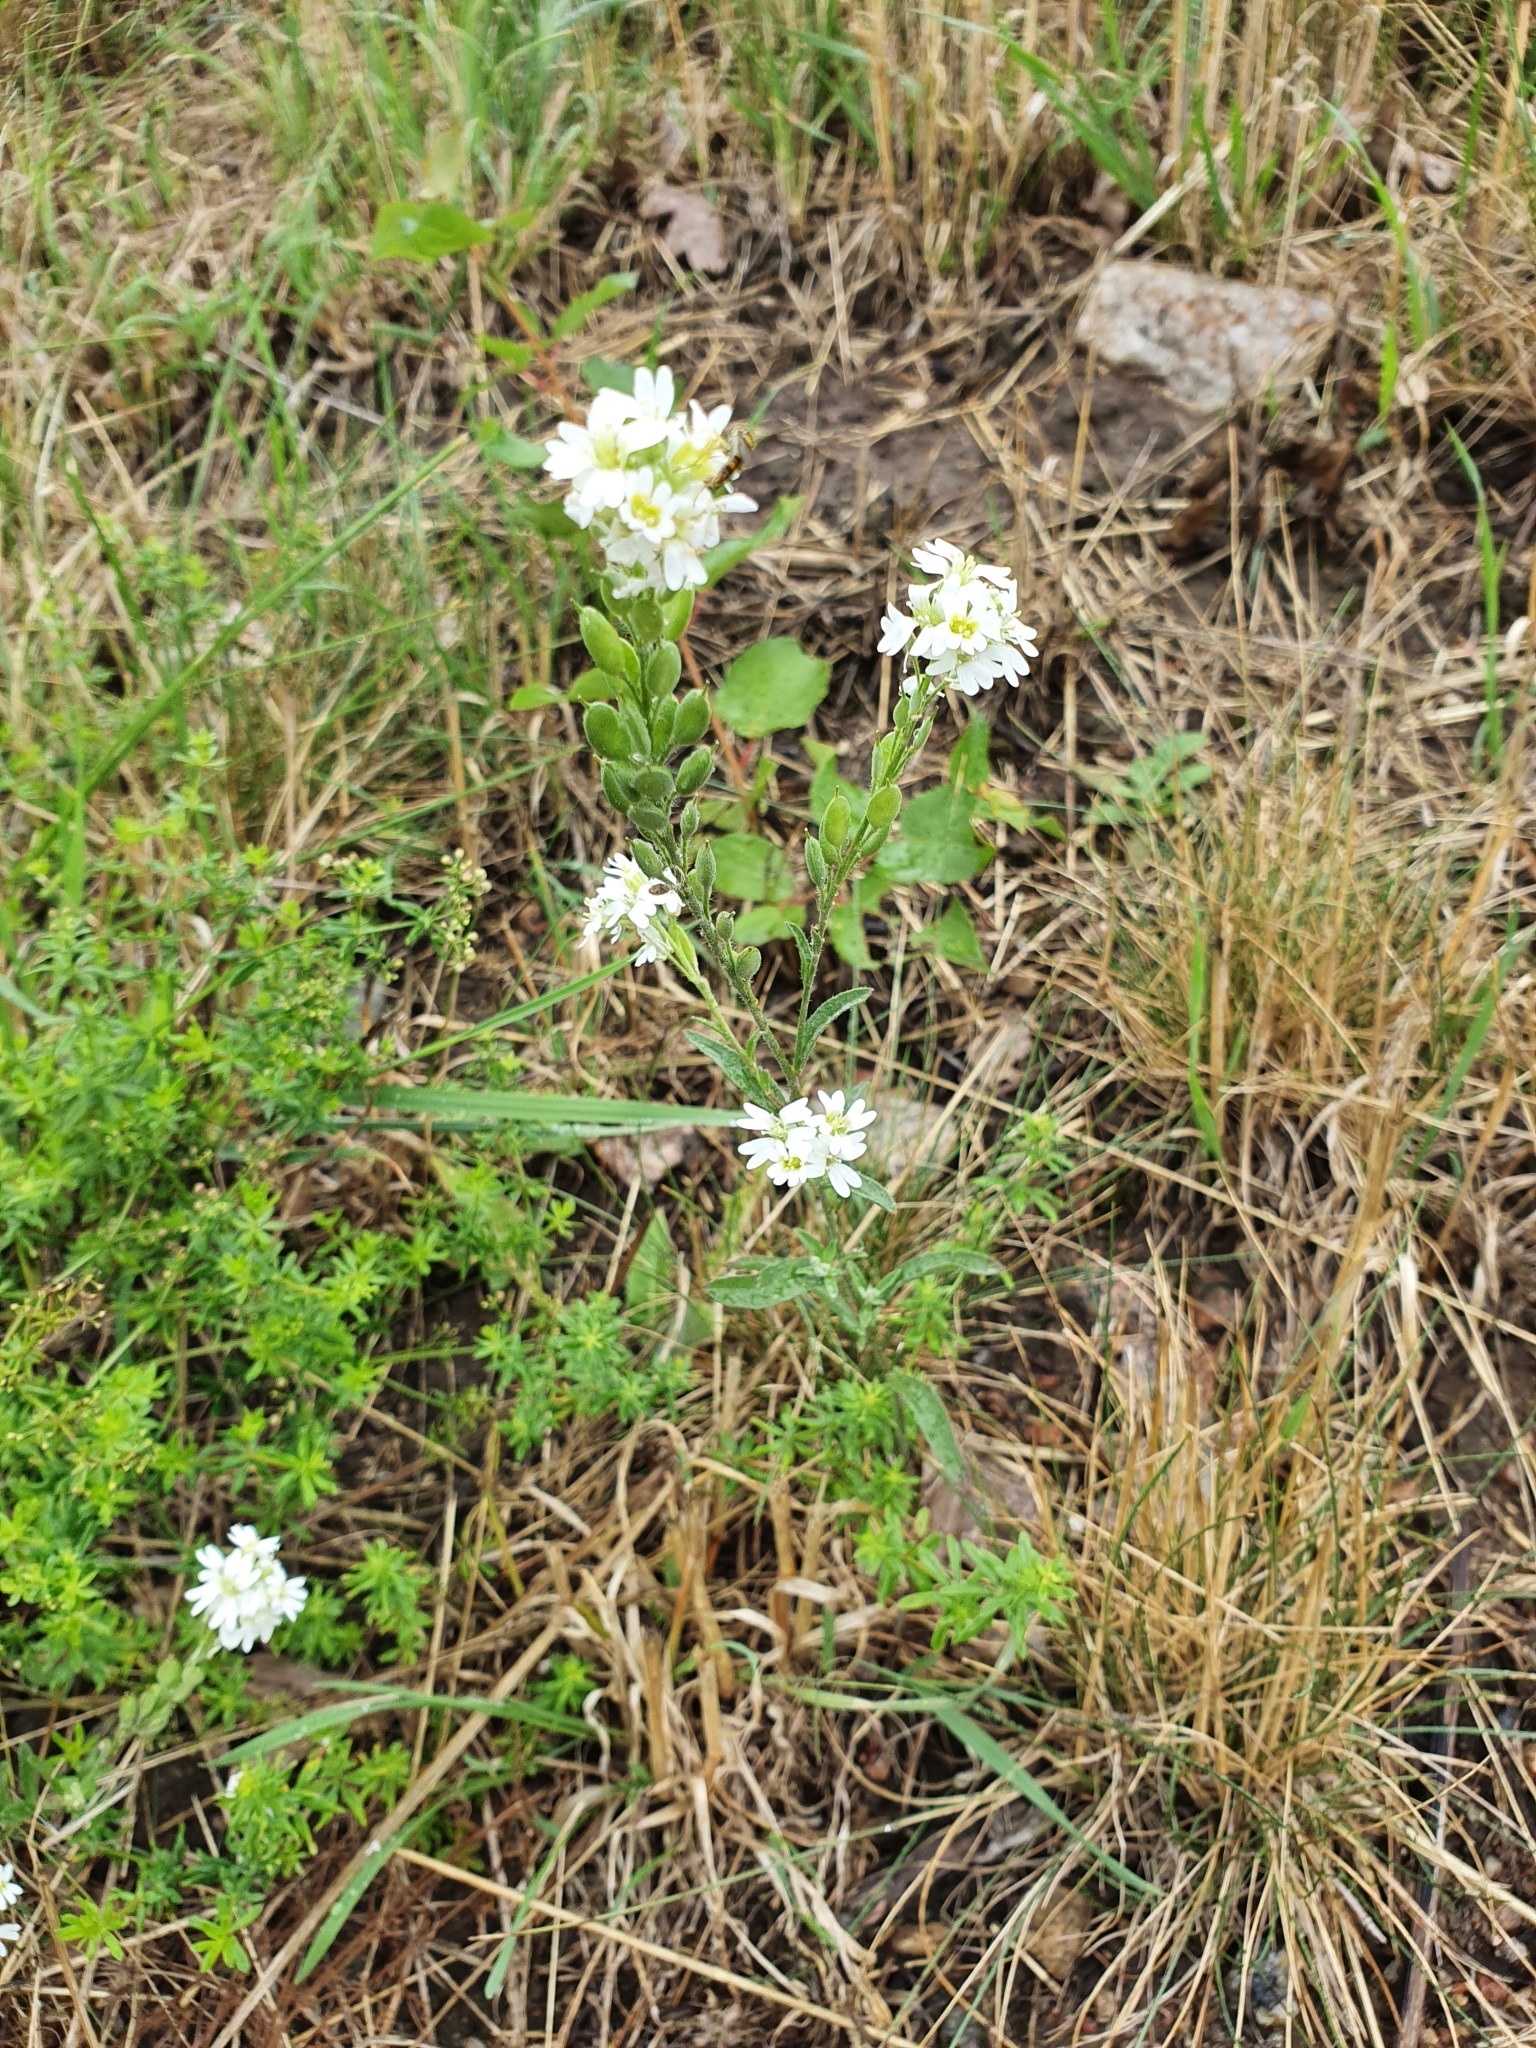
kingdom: Plantae
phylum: Tracheophyta
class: Magnoliopsida
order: Brassicales
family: Brassicaceae
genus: Berteroa
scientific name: Berteroa incana
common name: Hoary alison
